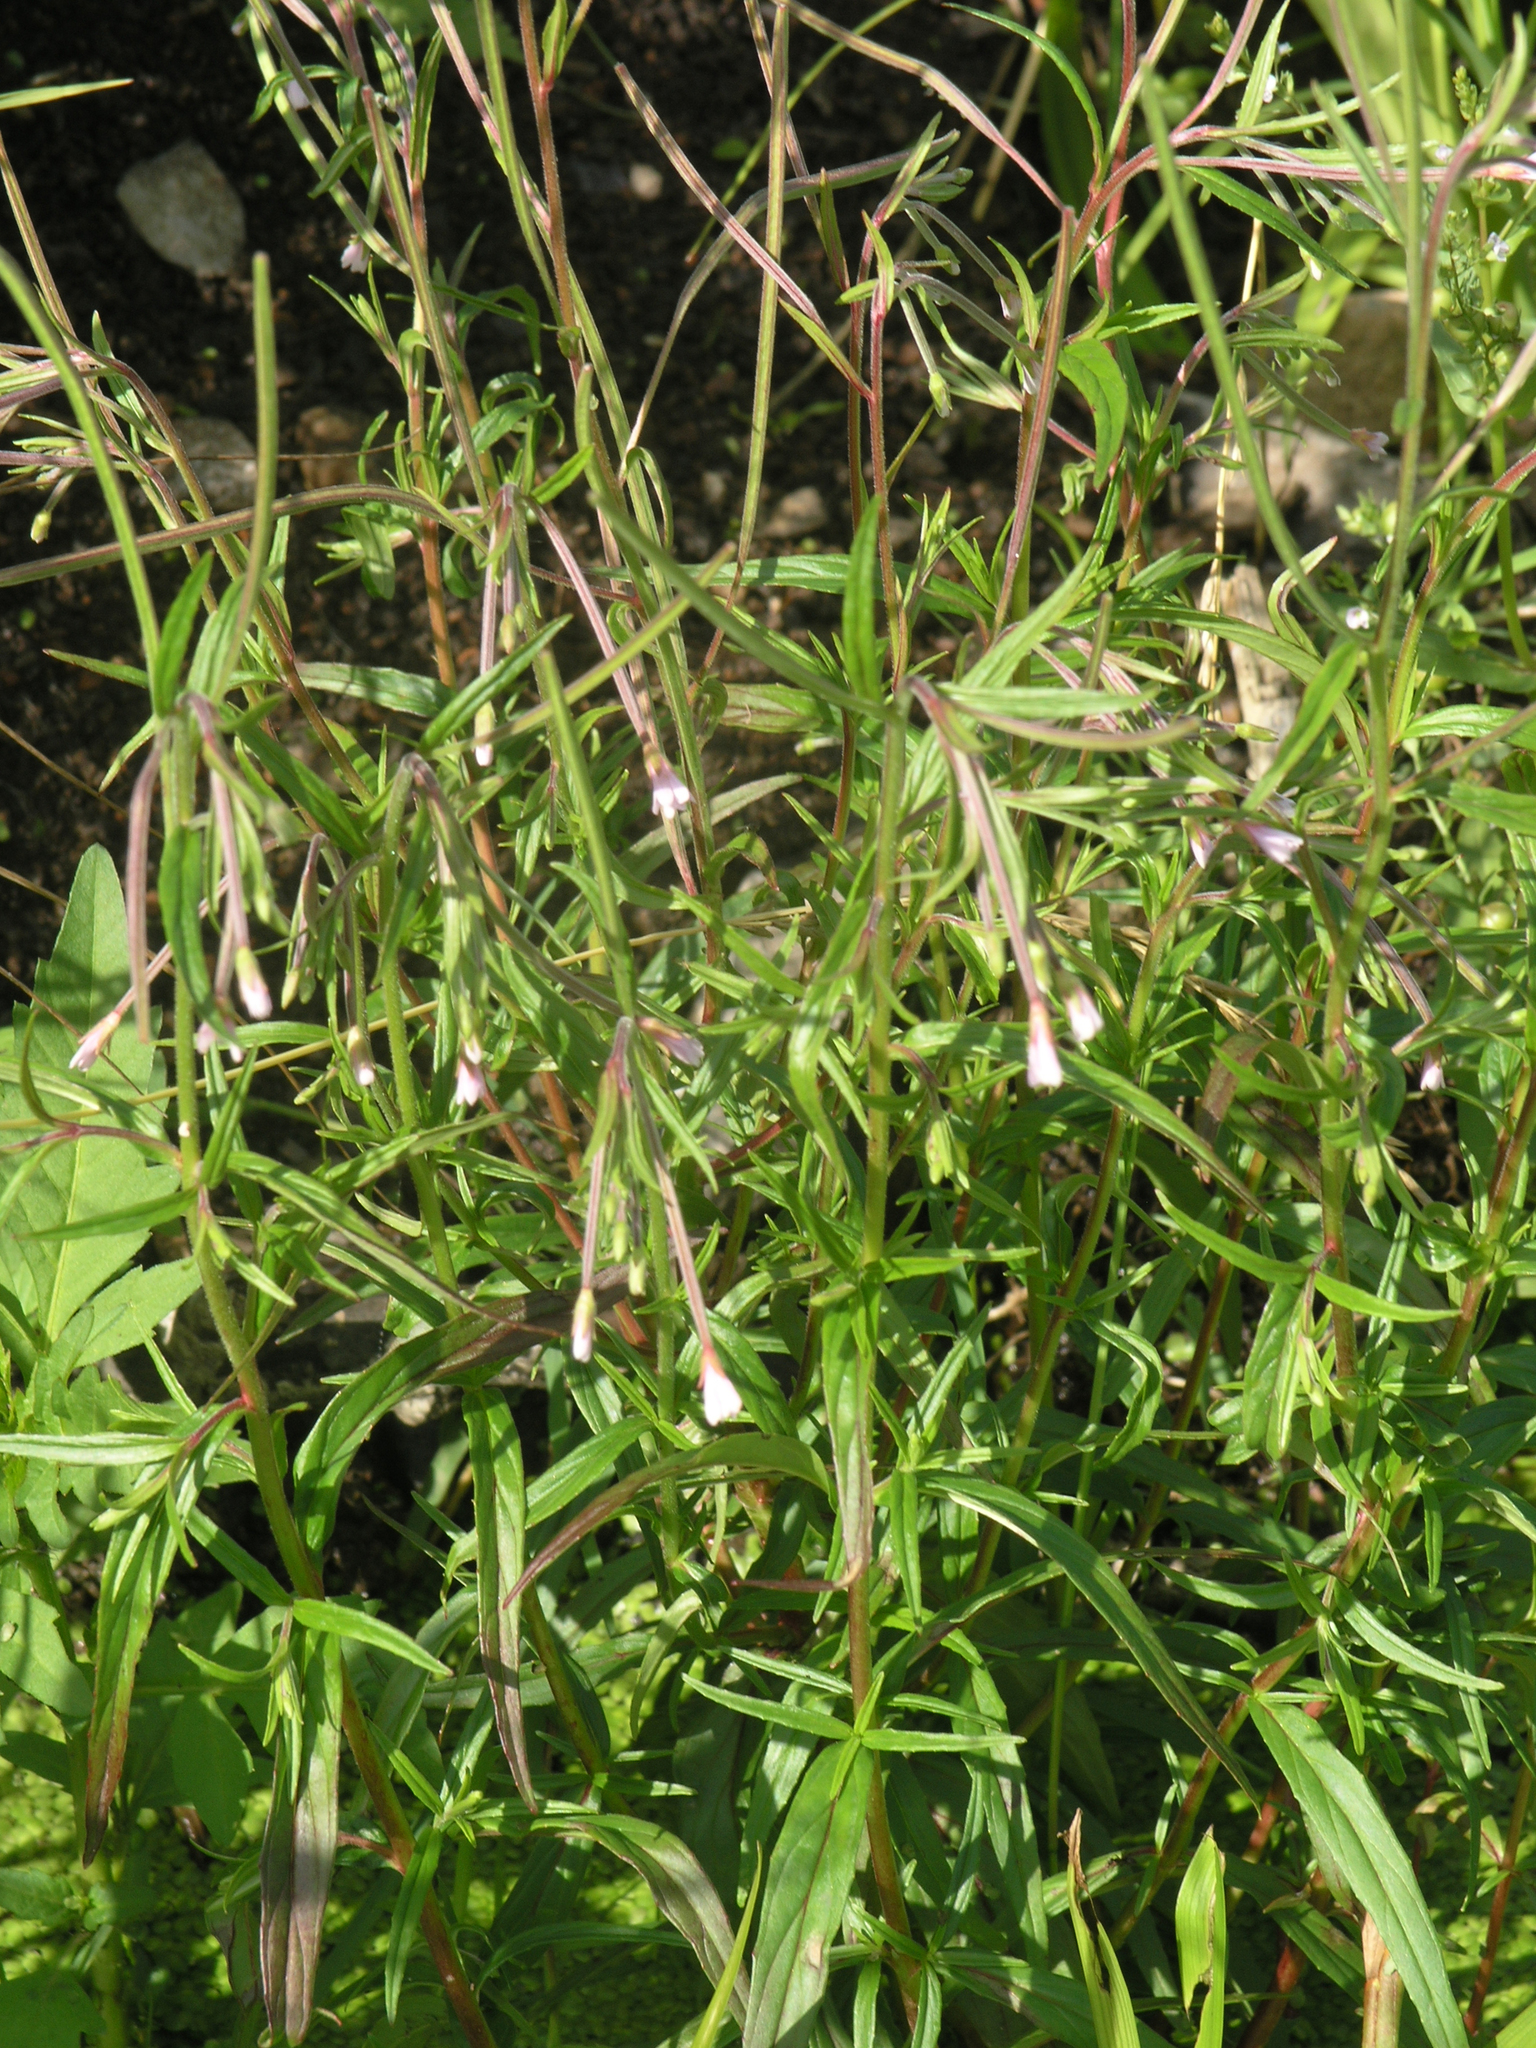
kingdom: Plantae
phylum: Tracheophyta
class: Magnoliopsida
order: Myrtales
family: Onagraceae
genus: Epilobium
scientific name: Epilobium palustre
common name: Marsh willowherb
